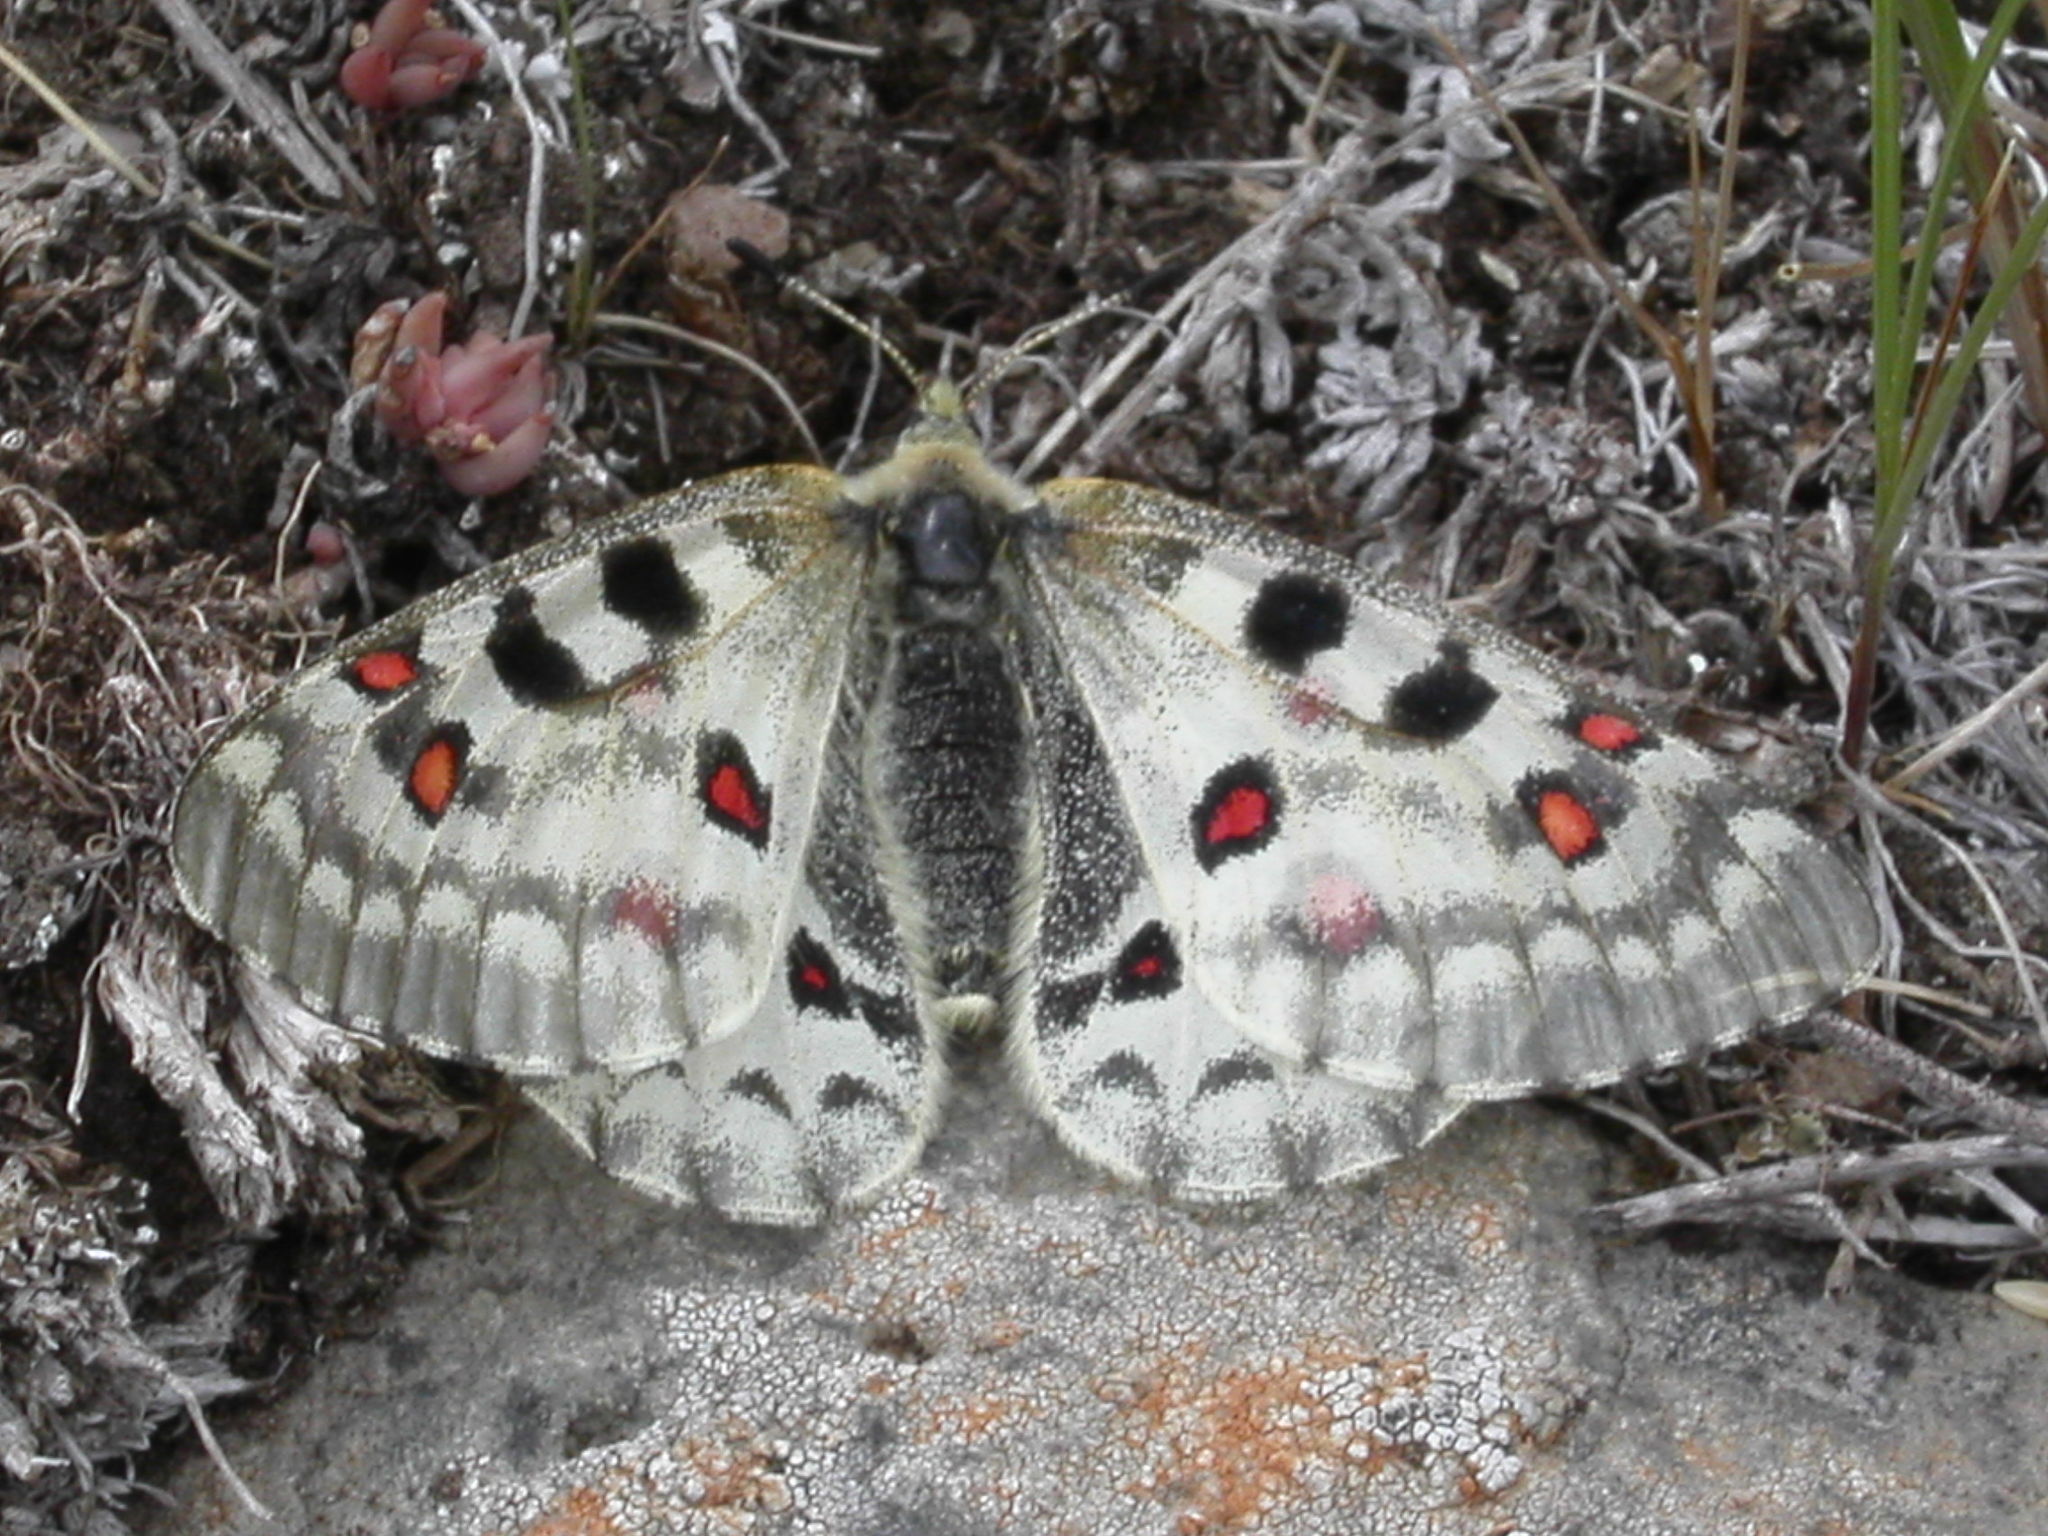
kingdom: Animalia
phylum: Arthropoda
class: Insecta
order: Lepidoptera
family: Papilionidae
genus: Parnassius
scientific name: Parnassius smintheus
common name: Mountain parnassian
